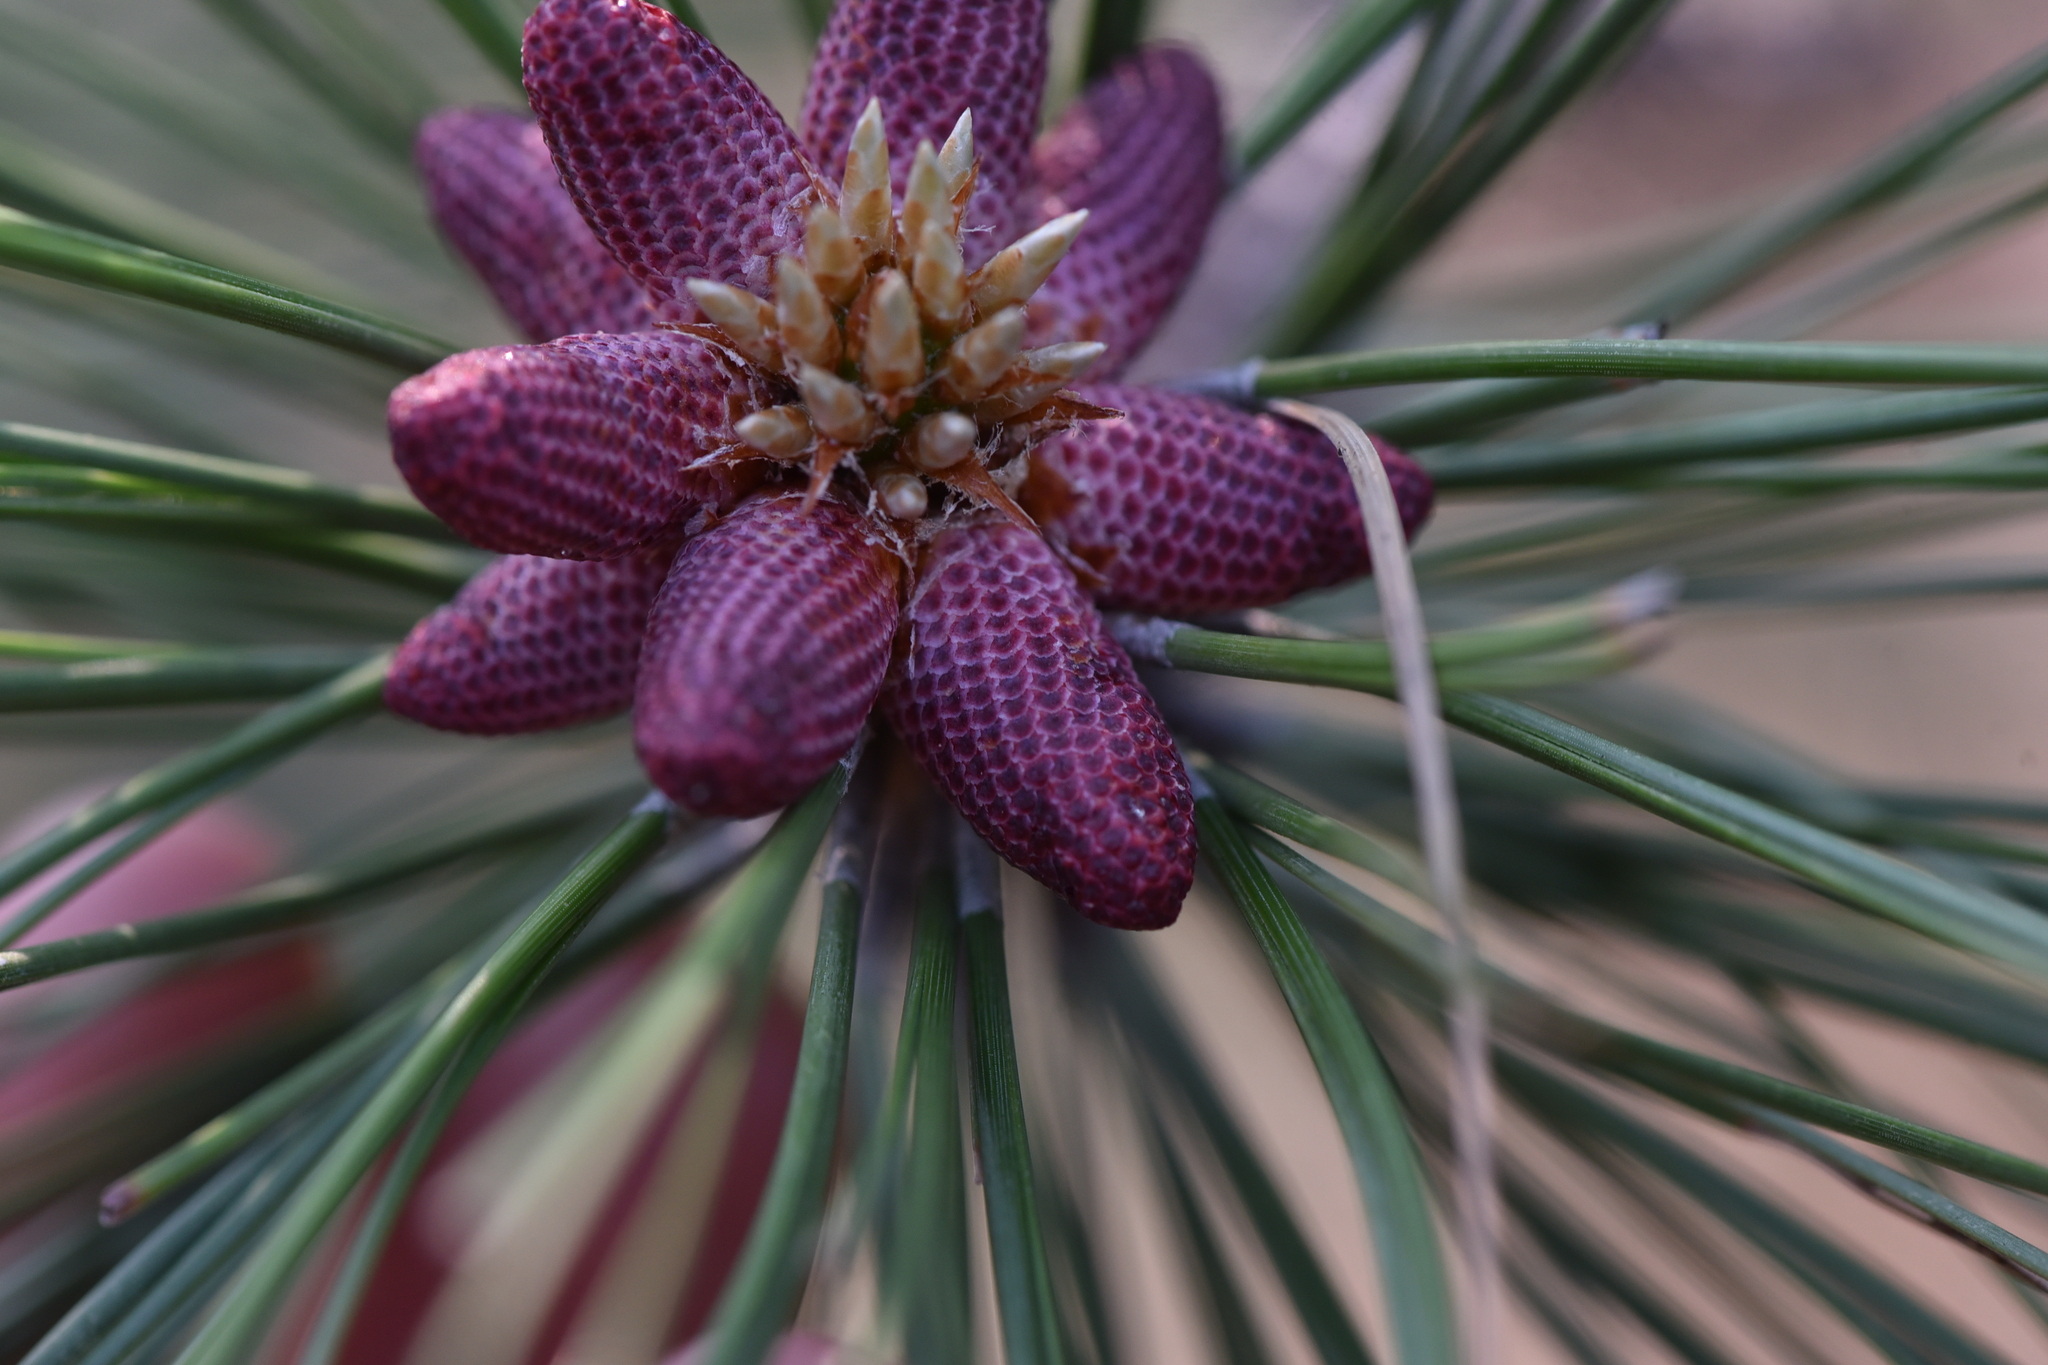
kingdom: Plantae
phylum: Tracheophyta
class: Pinopsida
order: Pinales
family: Pinaceae
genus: Pinus
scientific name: Pinus ponderosa
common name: Western yellow-pine
